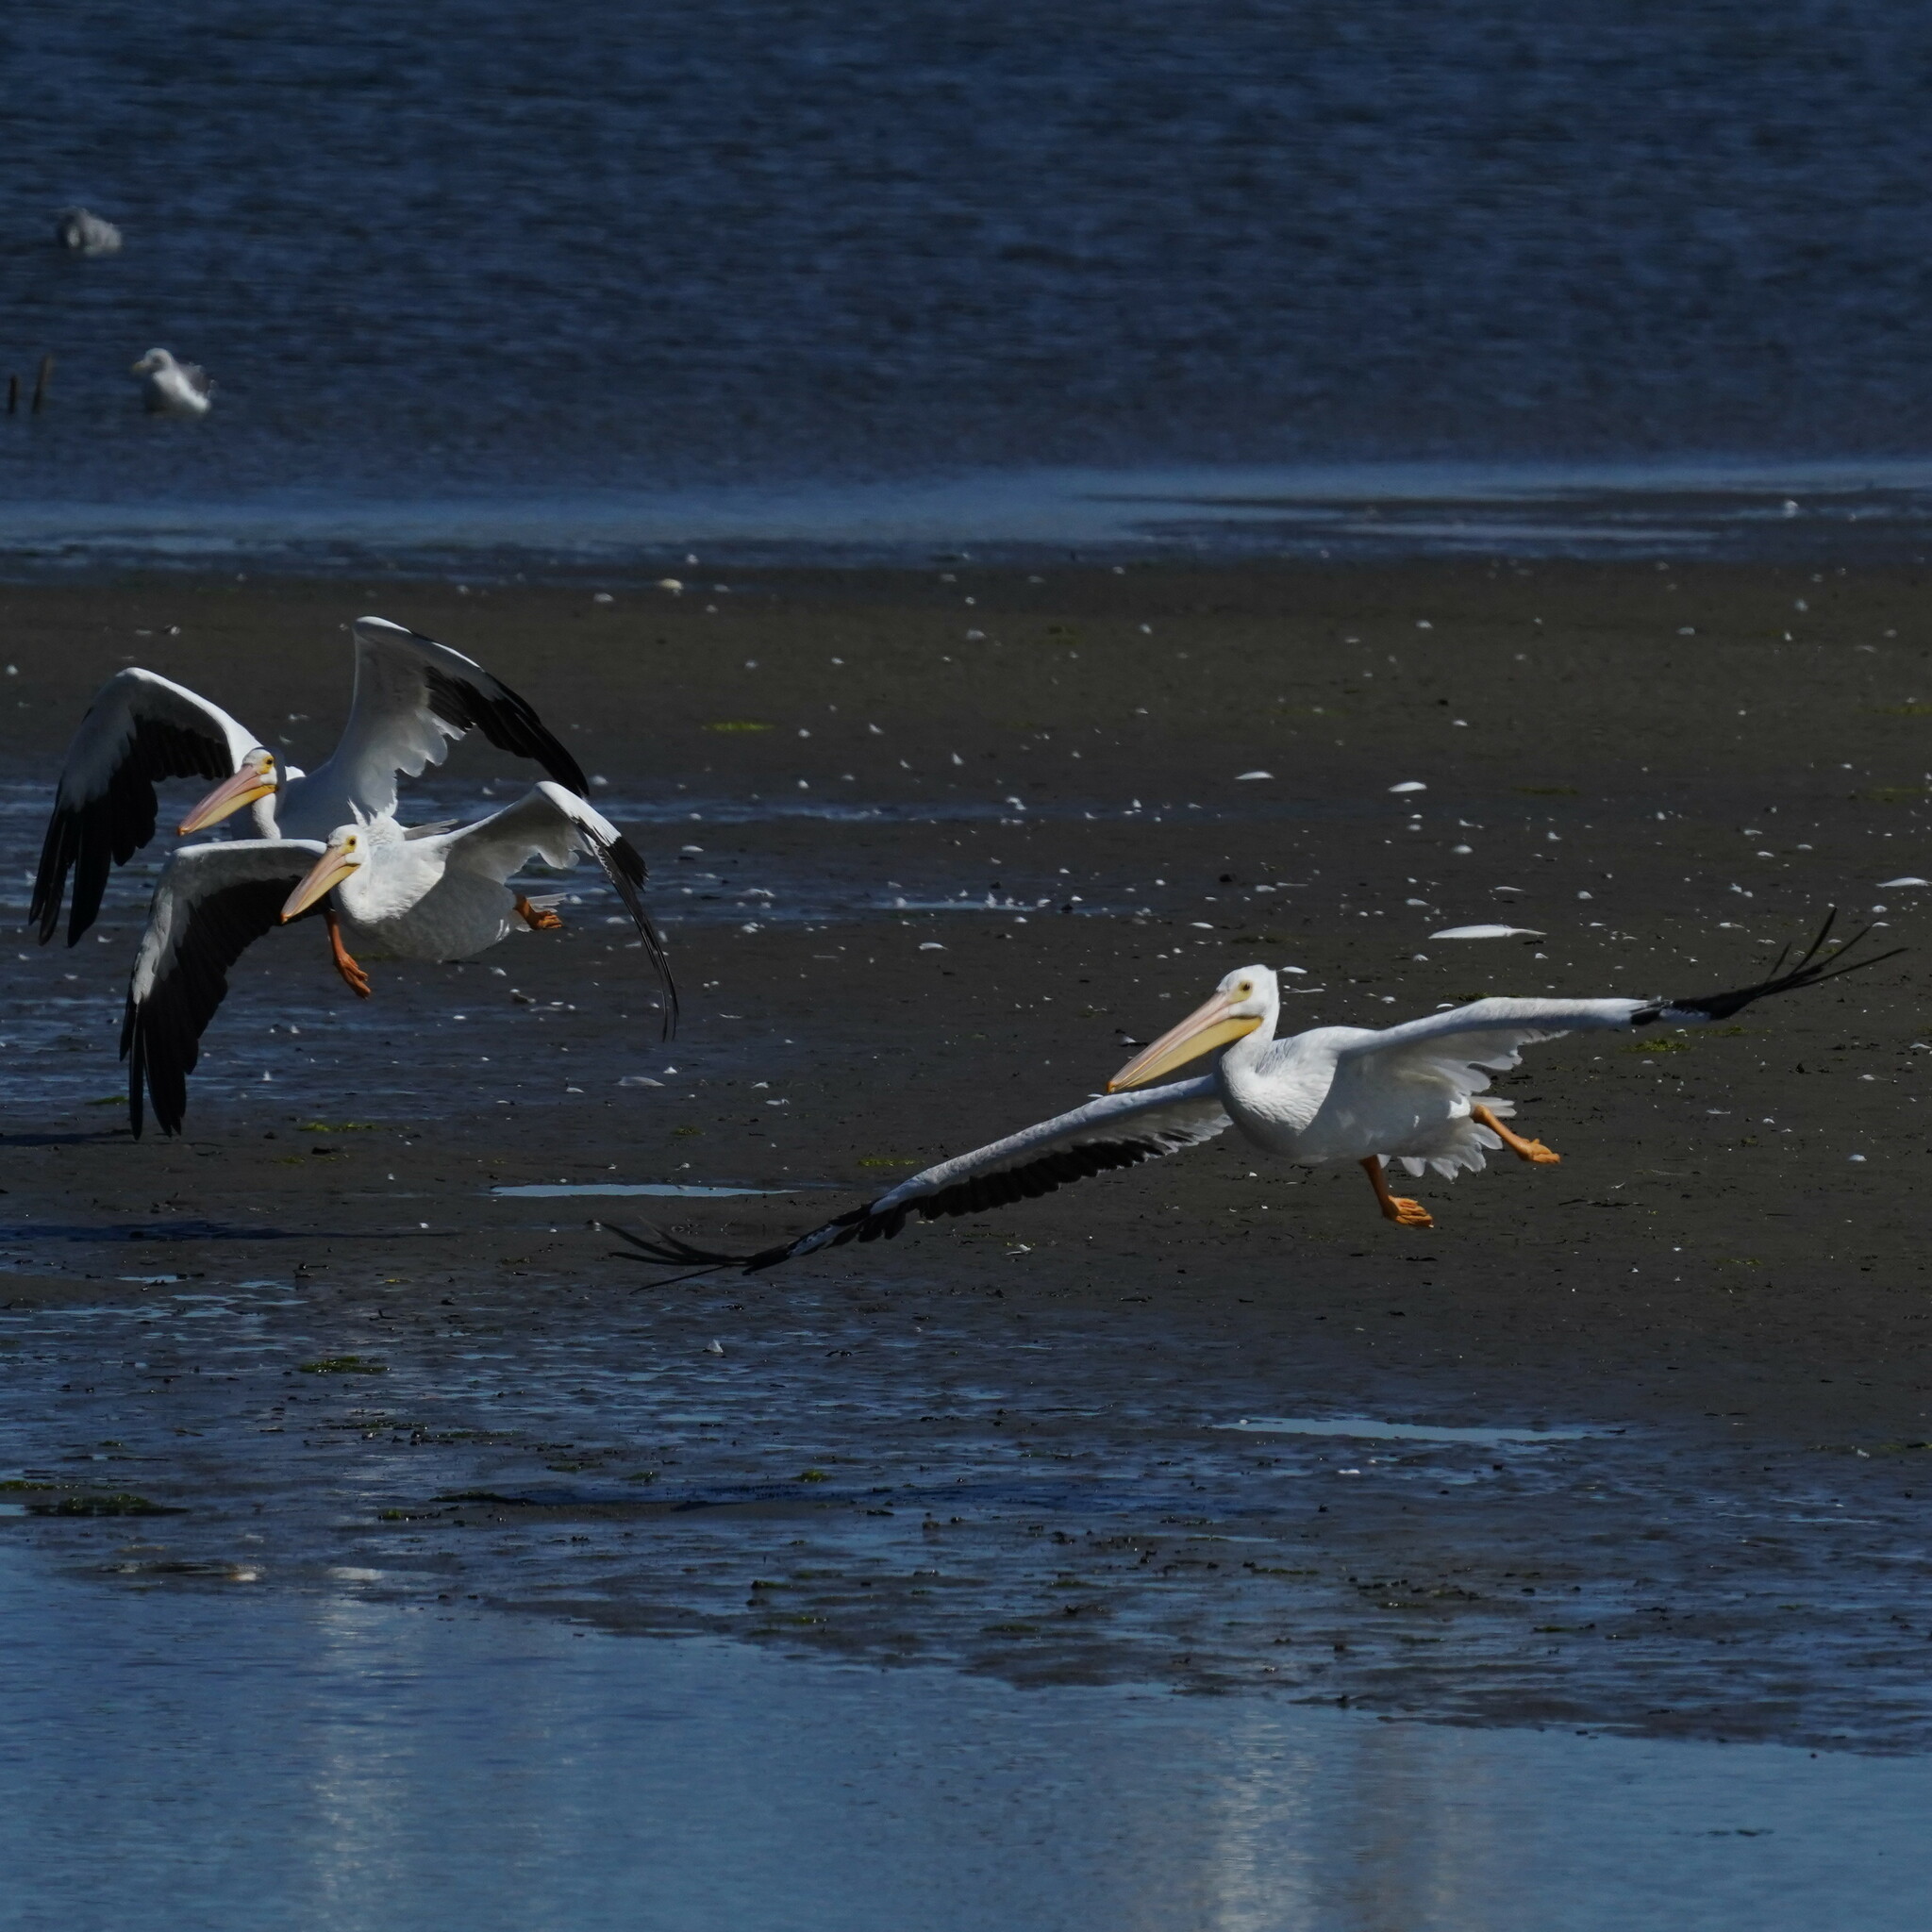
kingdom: Animalia
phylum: Chordata
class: Aves
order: Pelecaniformes
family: Pelecanidae
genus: Pelecanus
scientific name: Pelecanus erythrorhynchos
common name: American white pelican
